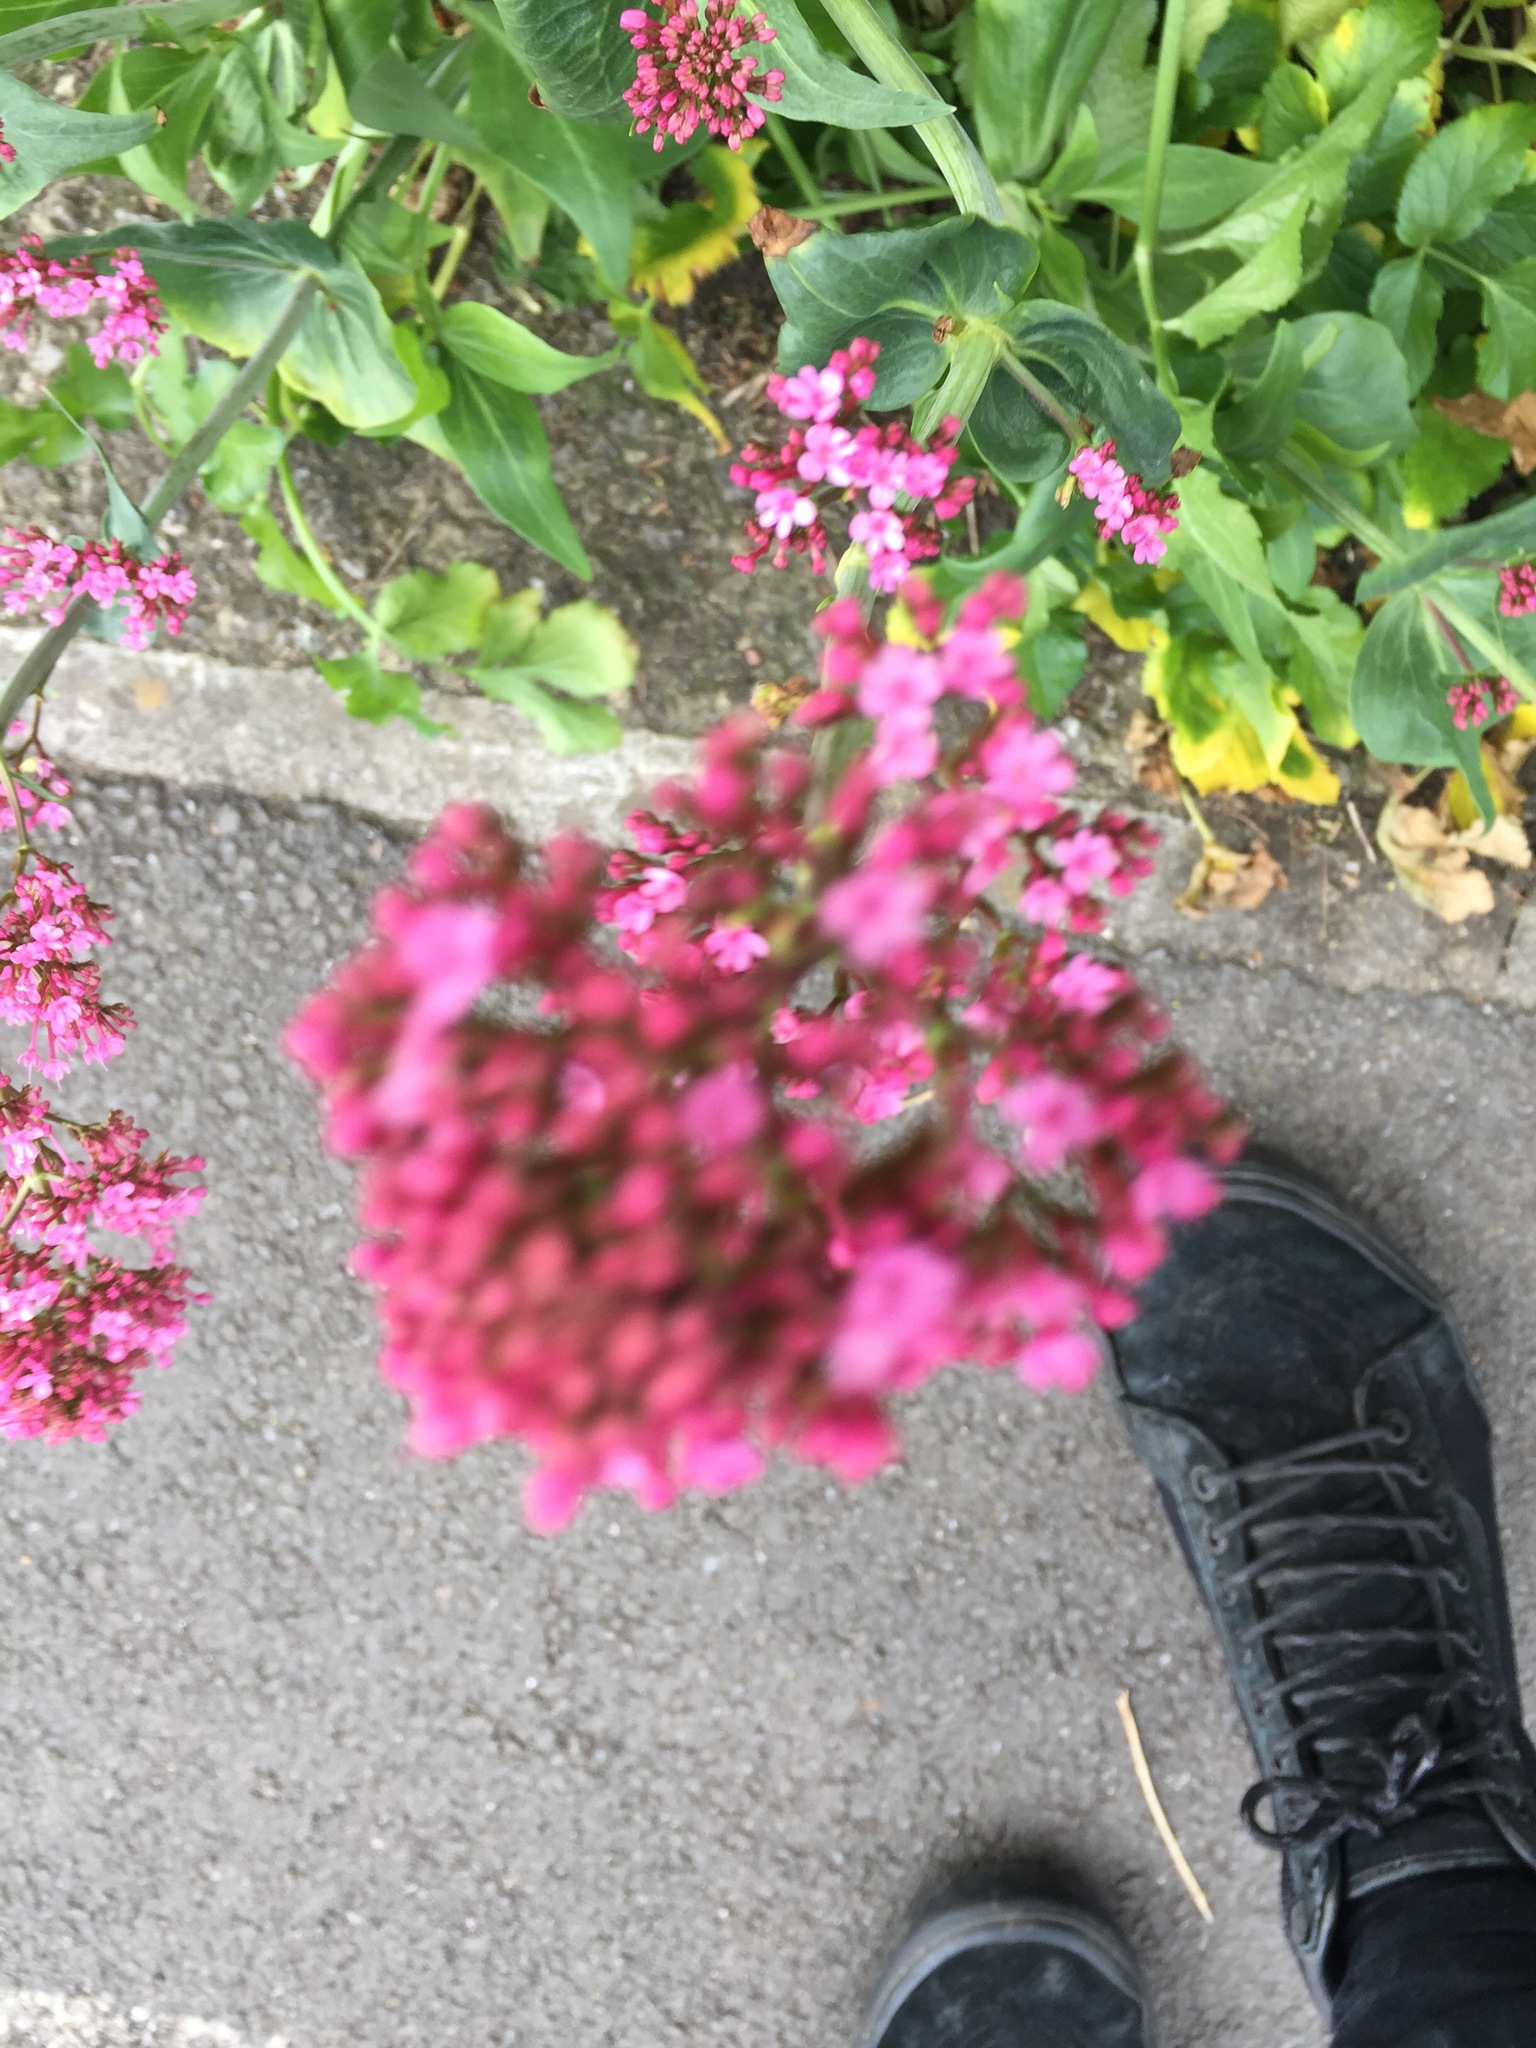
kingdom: Plantae
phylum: Tracheophyta
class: Magnoliopsida
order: Dipsacales
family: Caprifoliaceae
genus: Centranthus
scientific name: Centranthus ruber
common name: Red valerian
